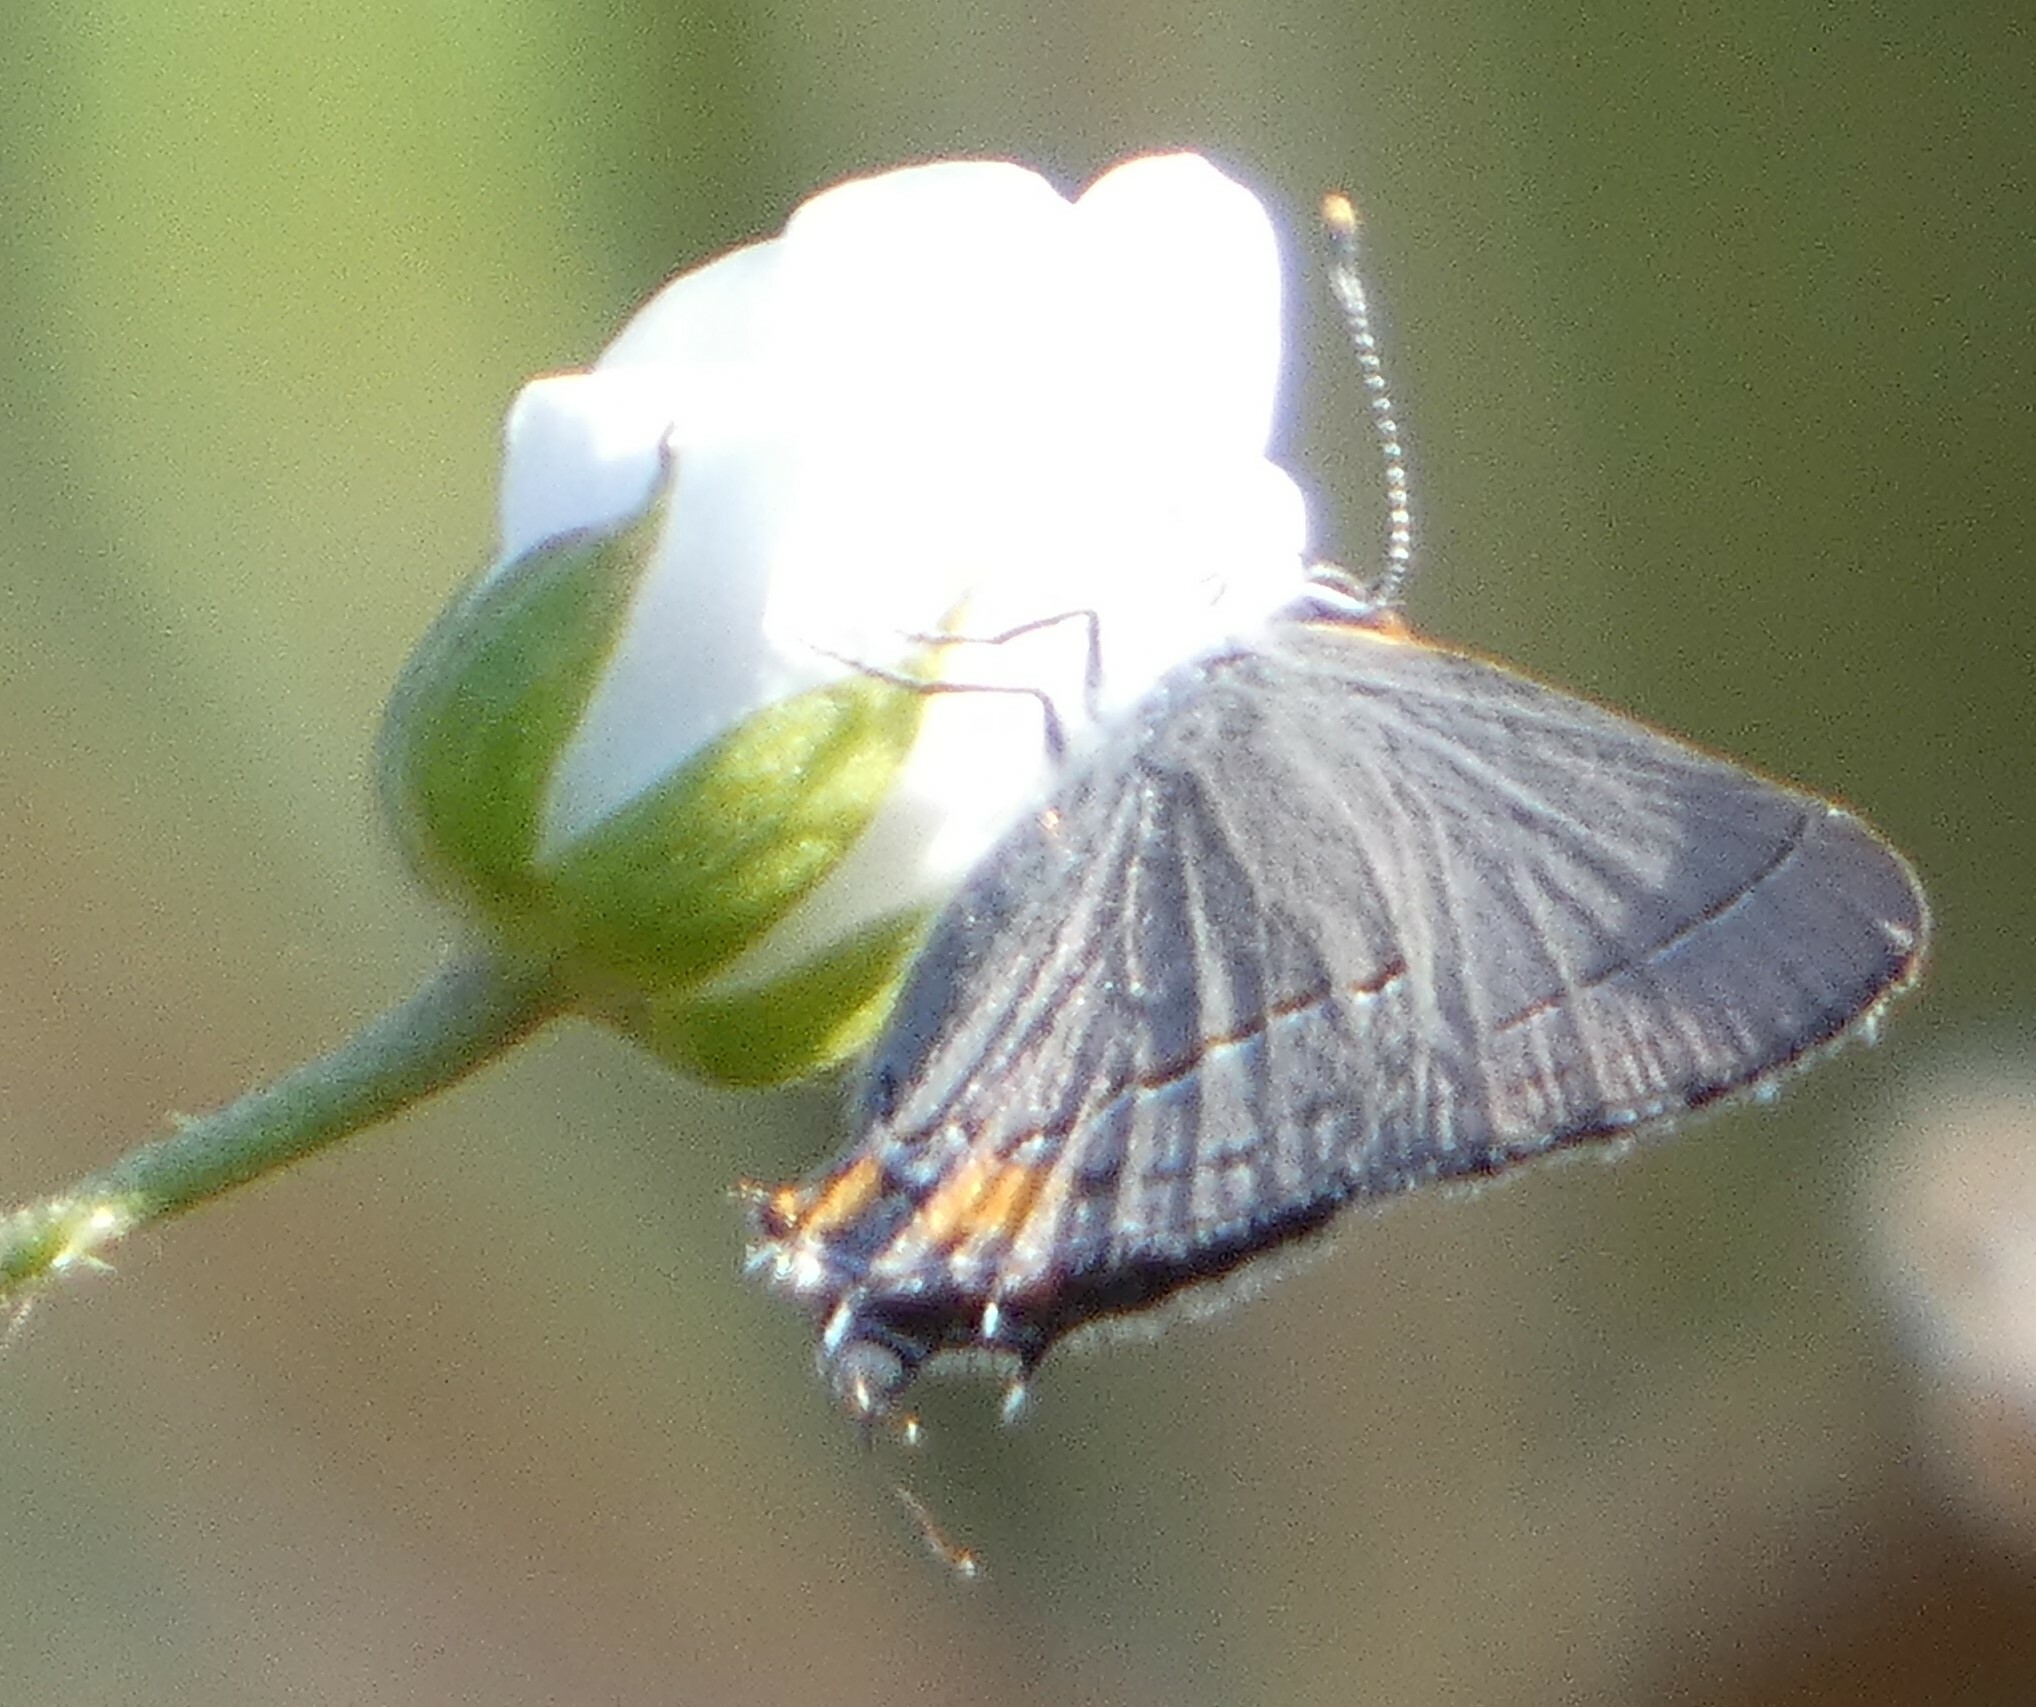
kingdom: Animalia
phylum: Arthropoda
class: Insecta
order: Lepidoptera
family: Lycaenidae
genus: Strymon
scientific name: Strymon melinus
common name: Gray hairstreak
